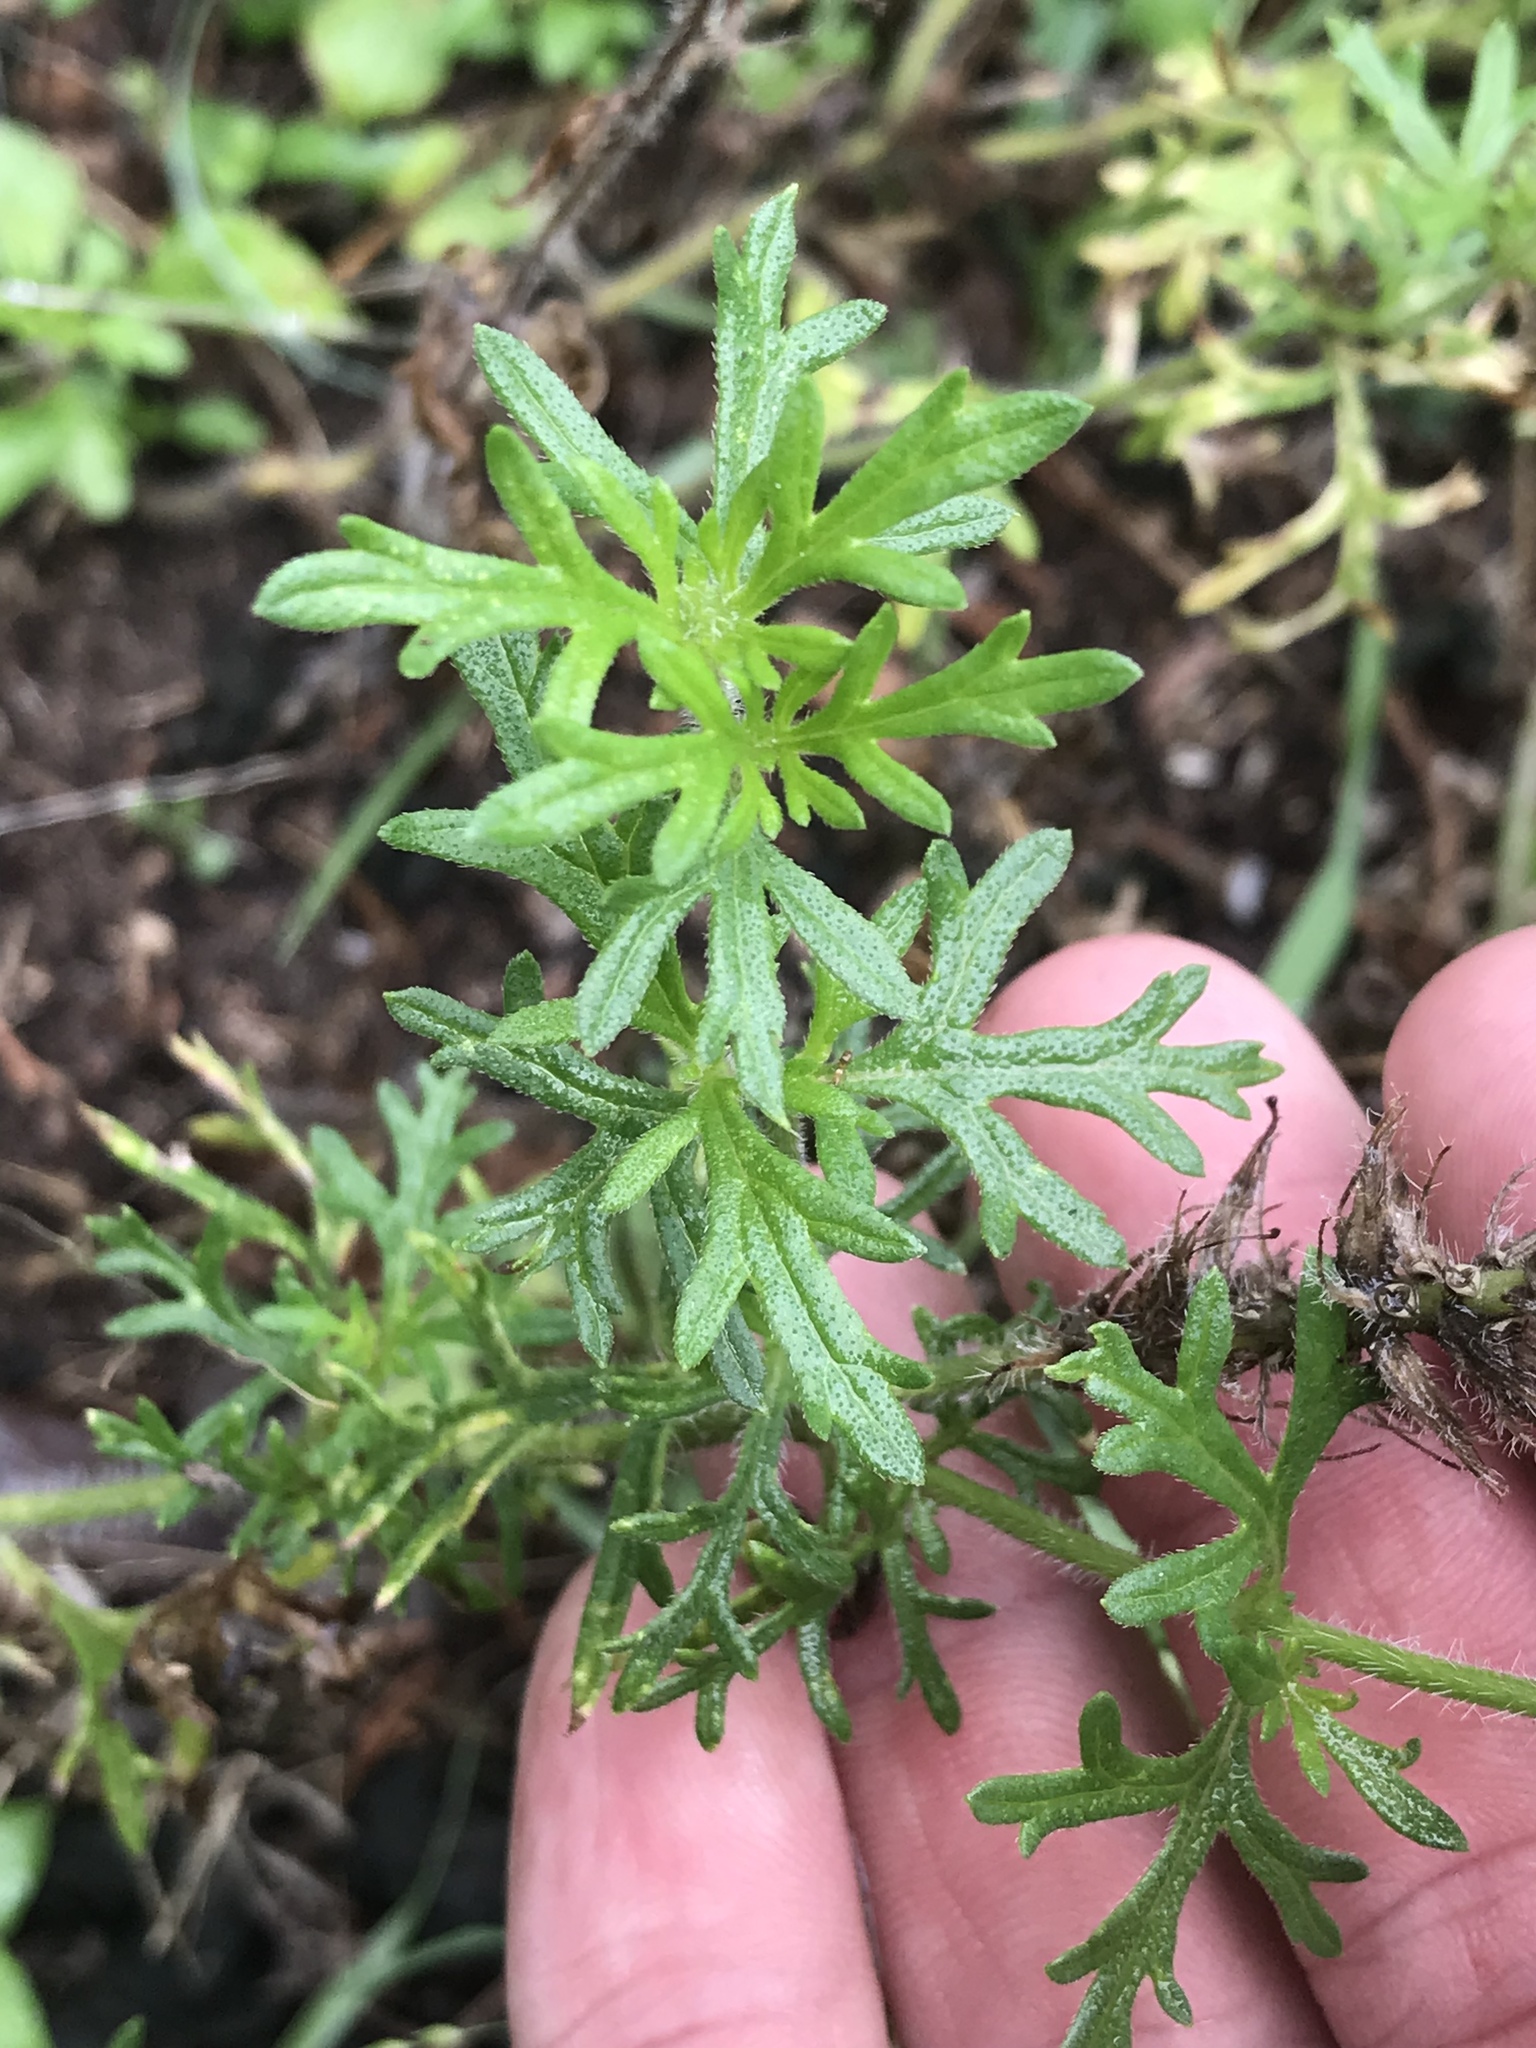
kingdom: Plantae
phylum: Tracheophyta
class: Magnoliopsida
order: Lamiales
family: Verbenaceae
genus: Verbena
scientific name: Verbena bipinnatifida
